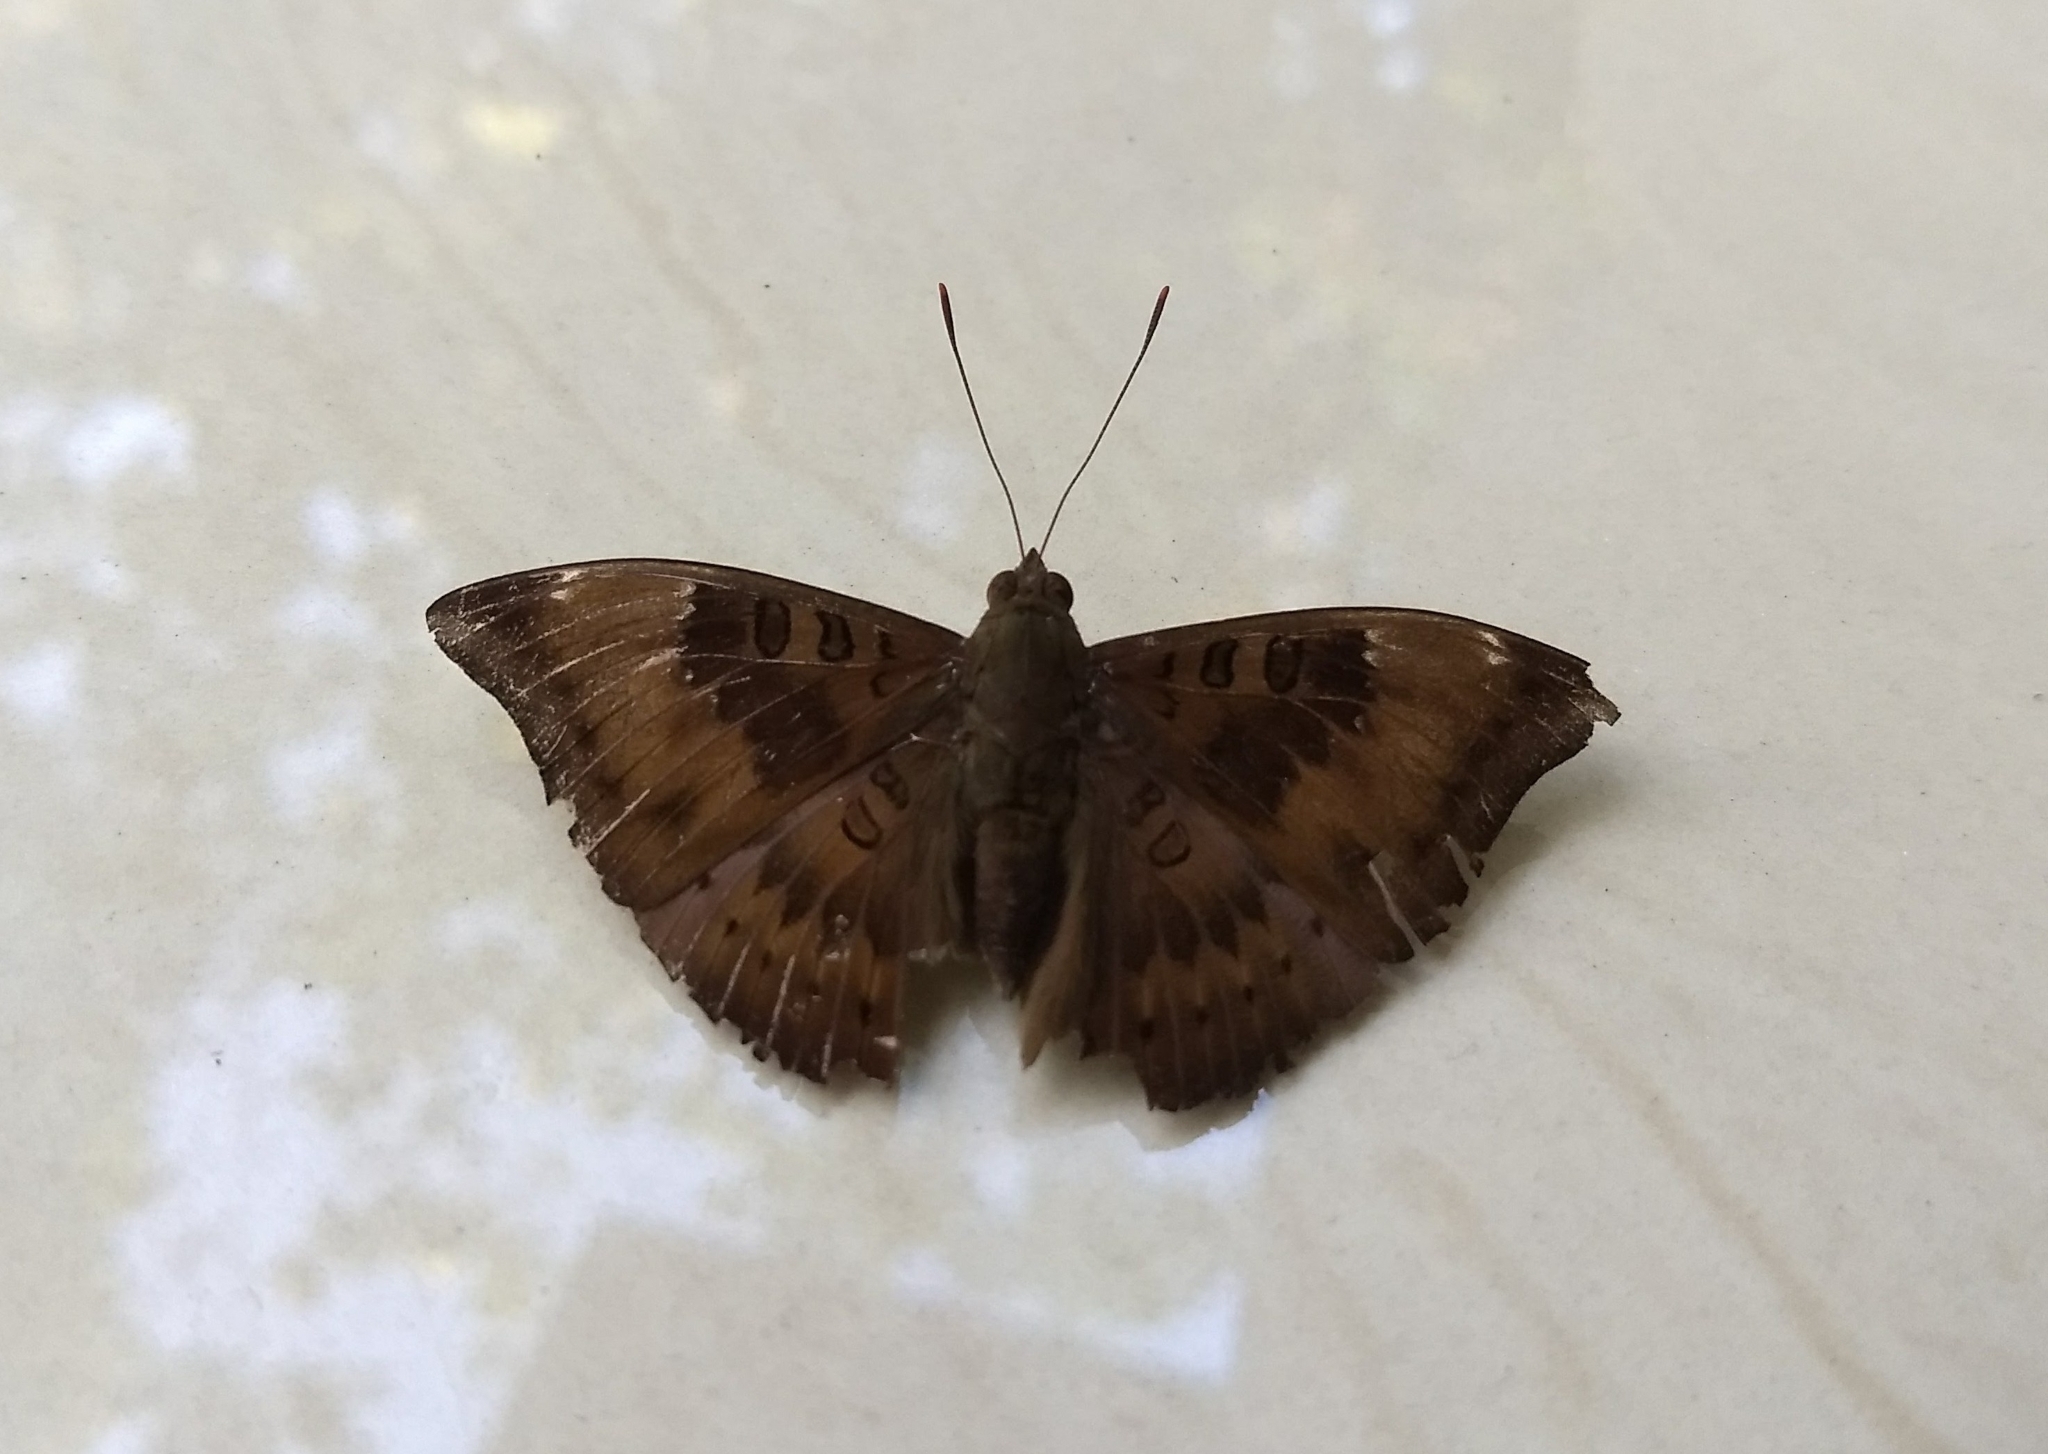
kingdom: Animalia
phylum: Arthropoda
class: Insecta
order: Lepidoptera
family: Nymphalidae
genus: Euthalia
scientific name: Euthalia aconthea
